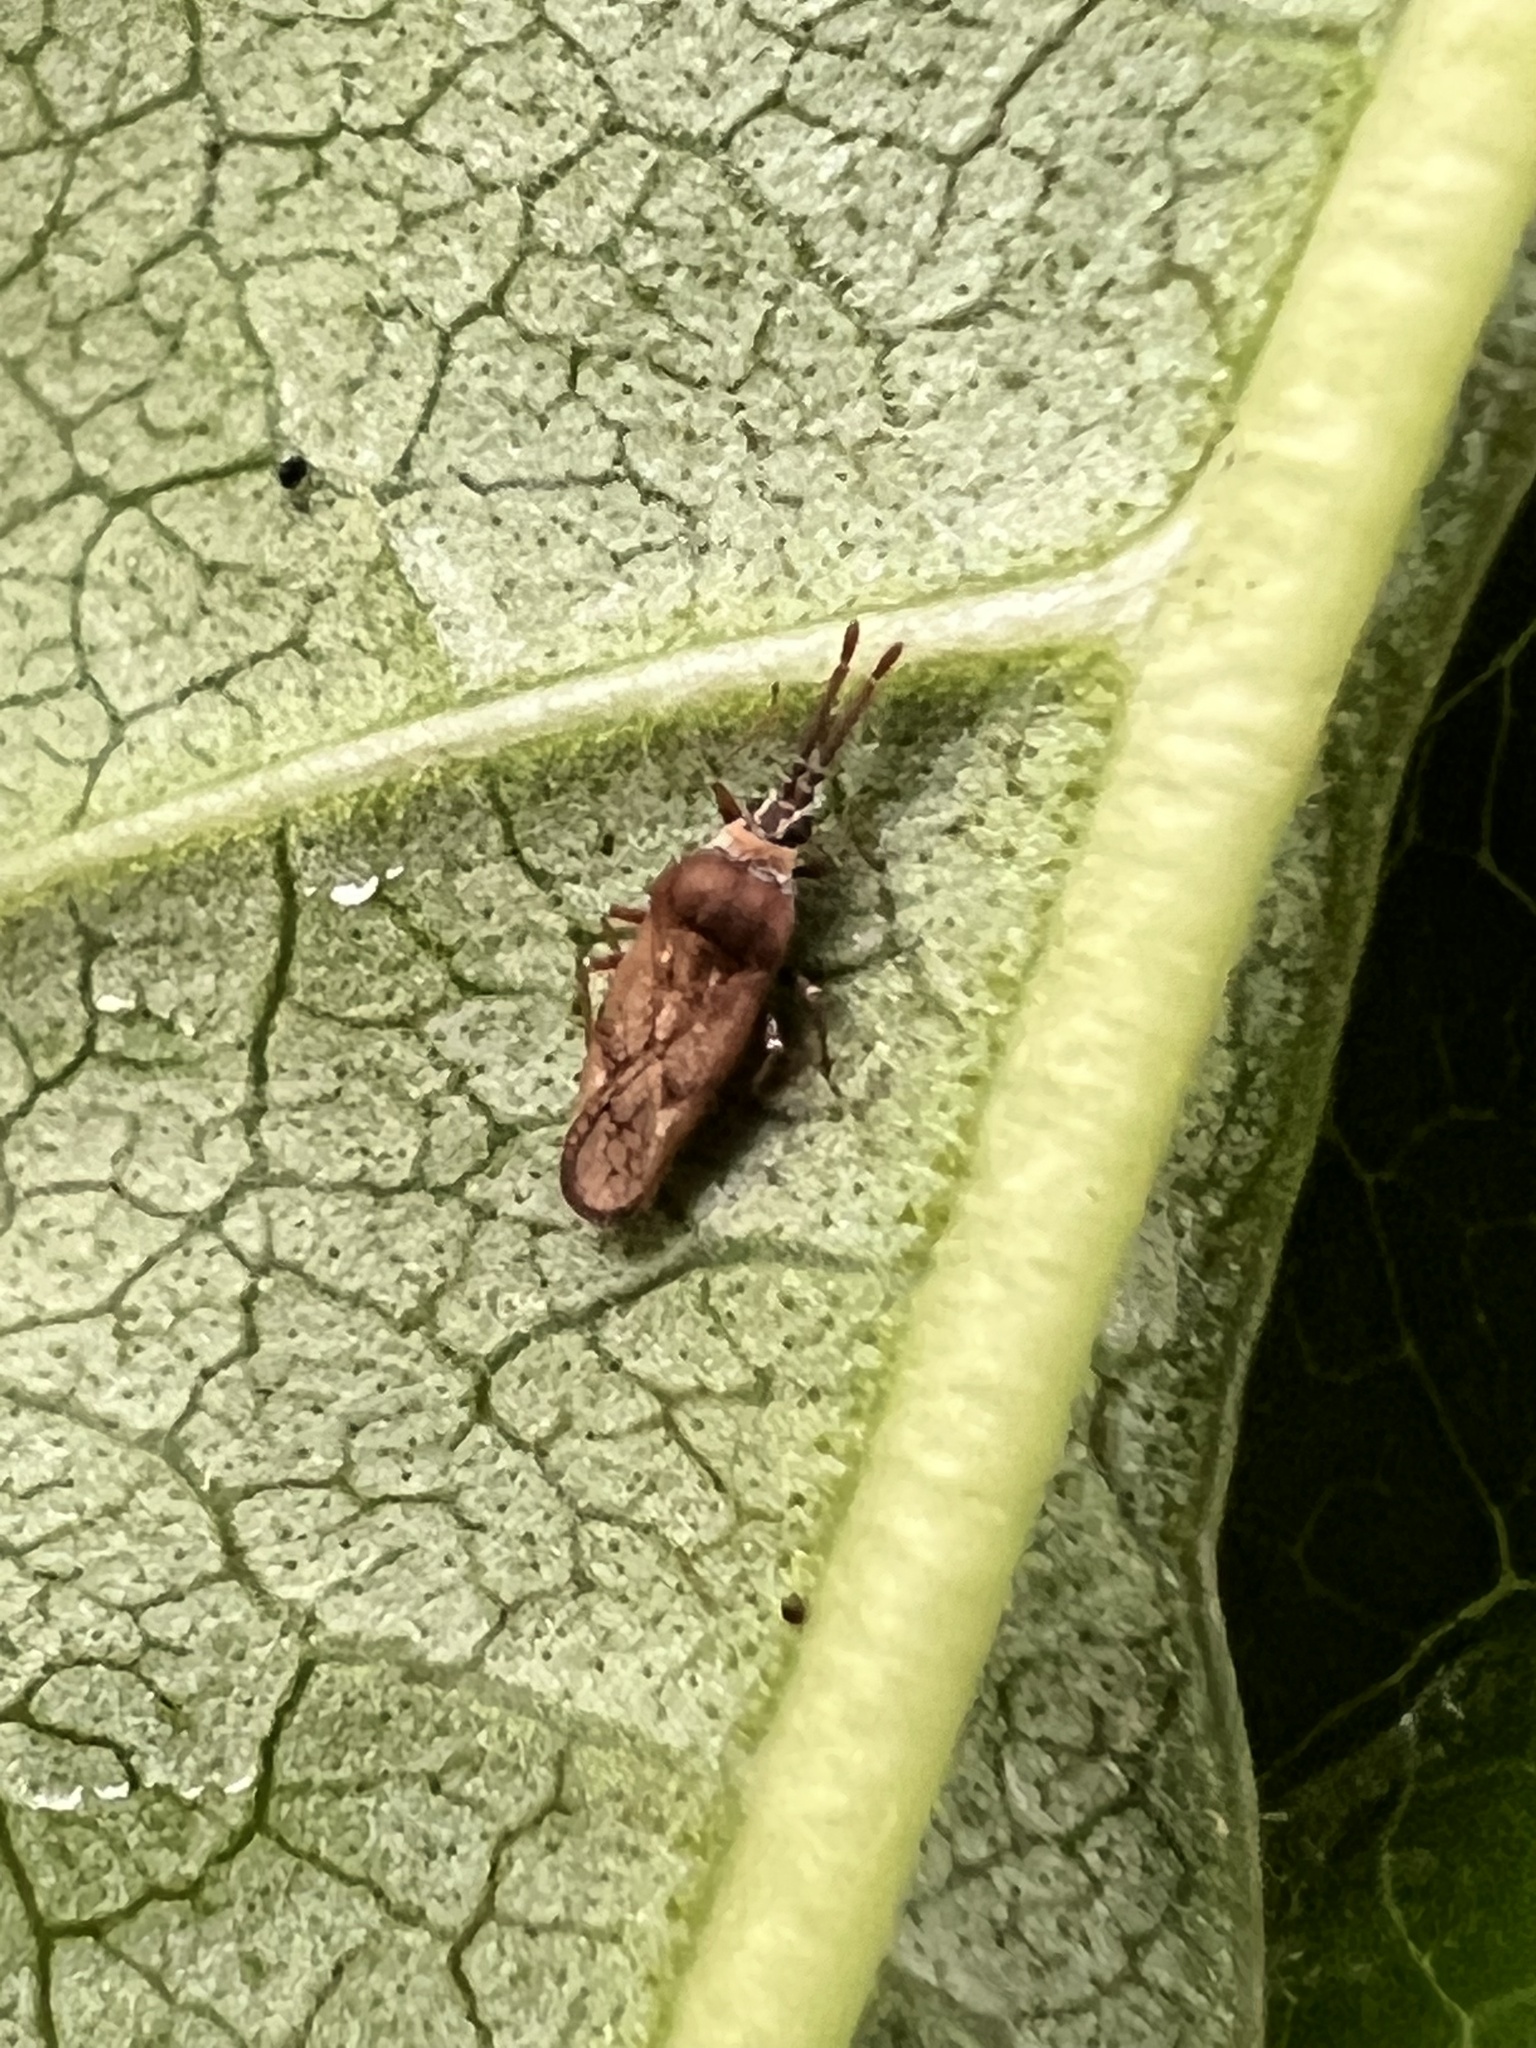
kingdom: Animalia
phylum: Arthropoda
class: Insecta
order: Hemiptera
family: Tingidae
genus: Leptoypha
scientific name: Leptoypha mutica
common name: Fringetree lace bug
